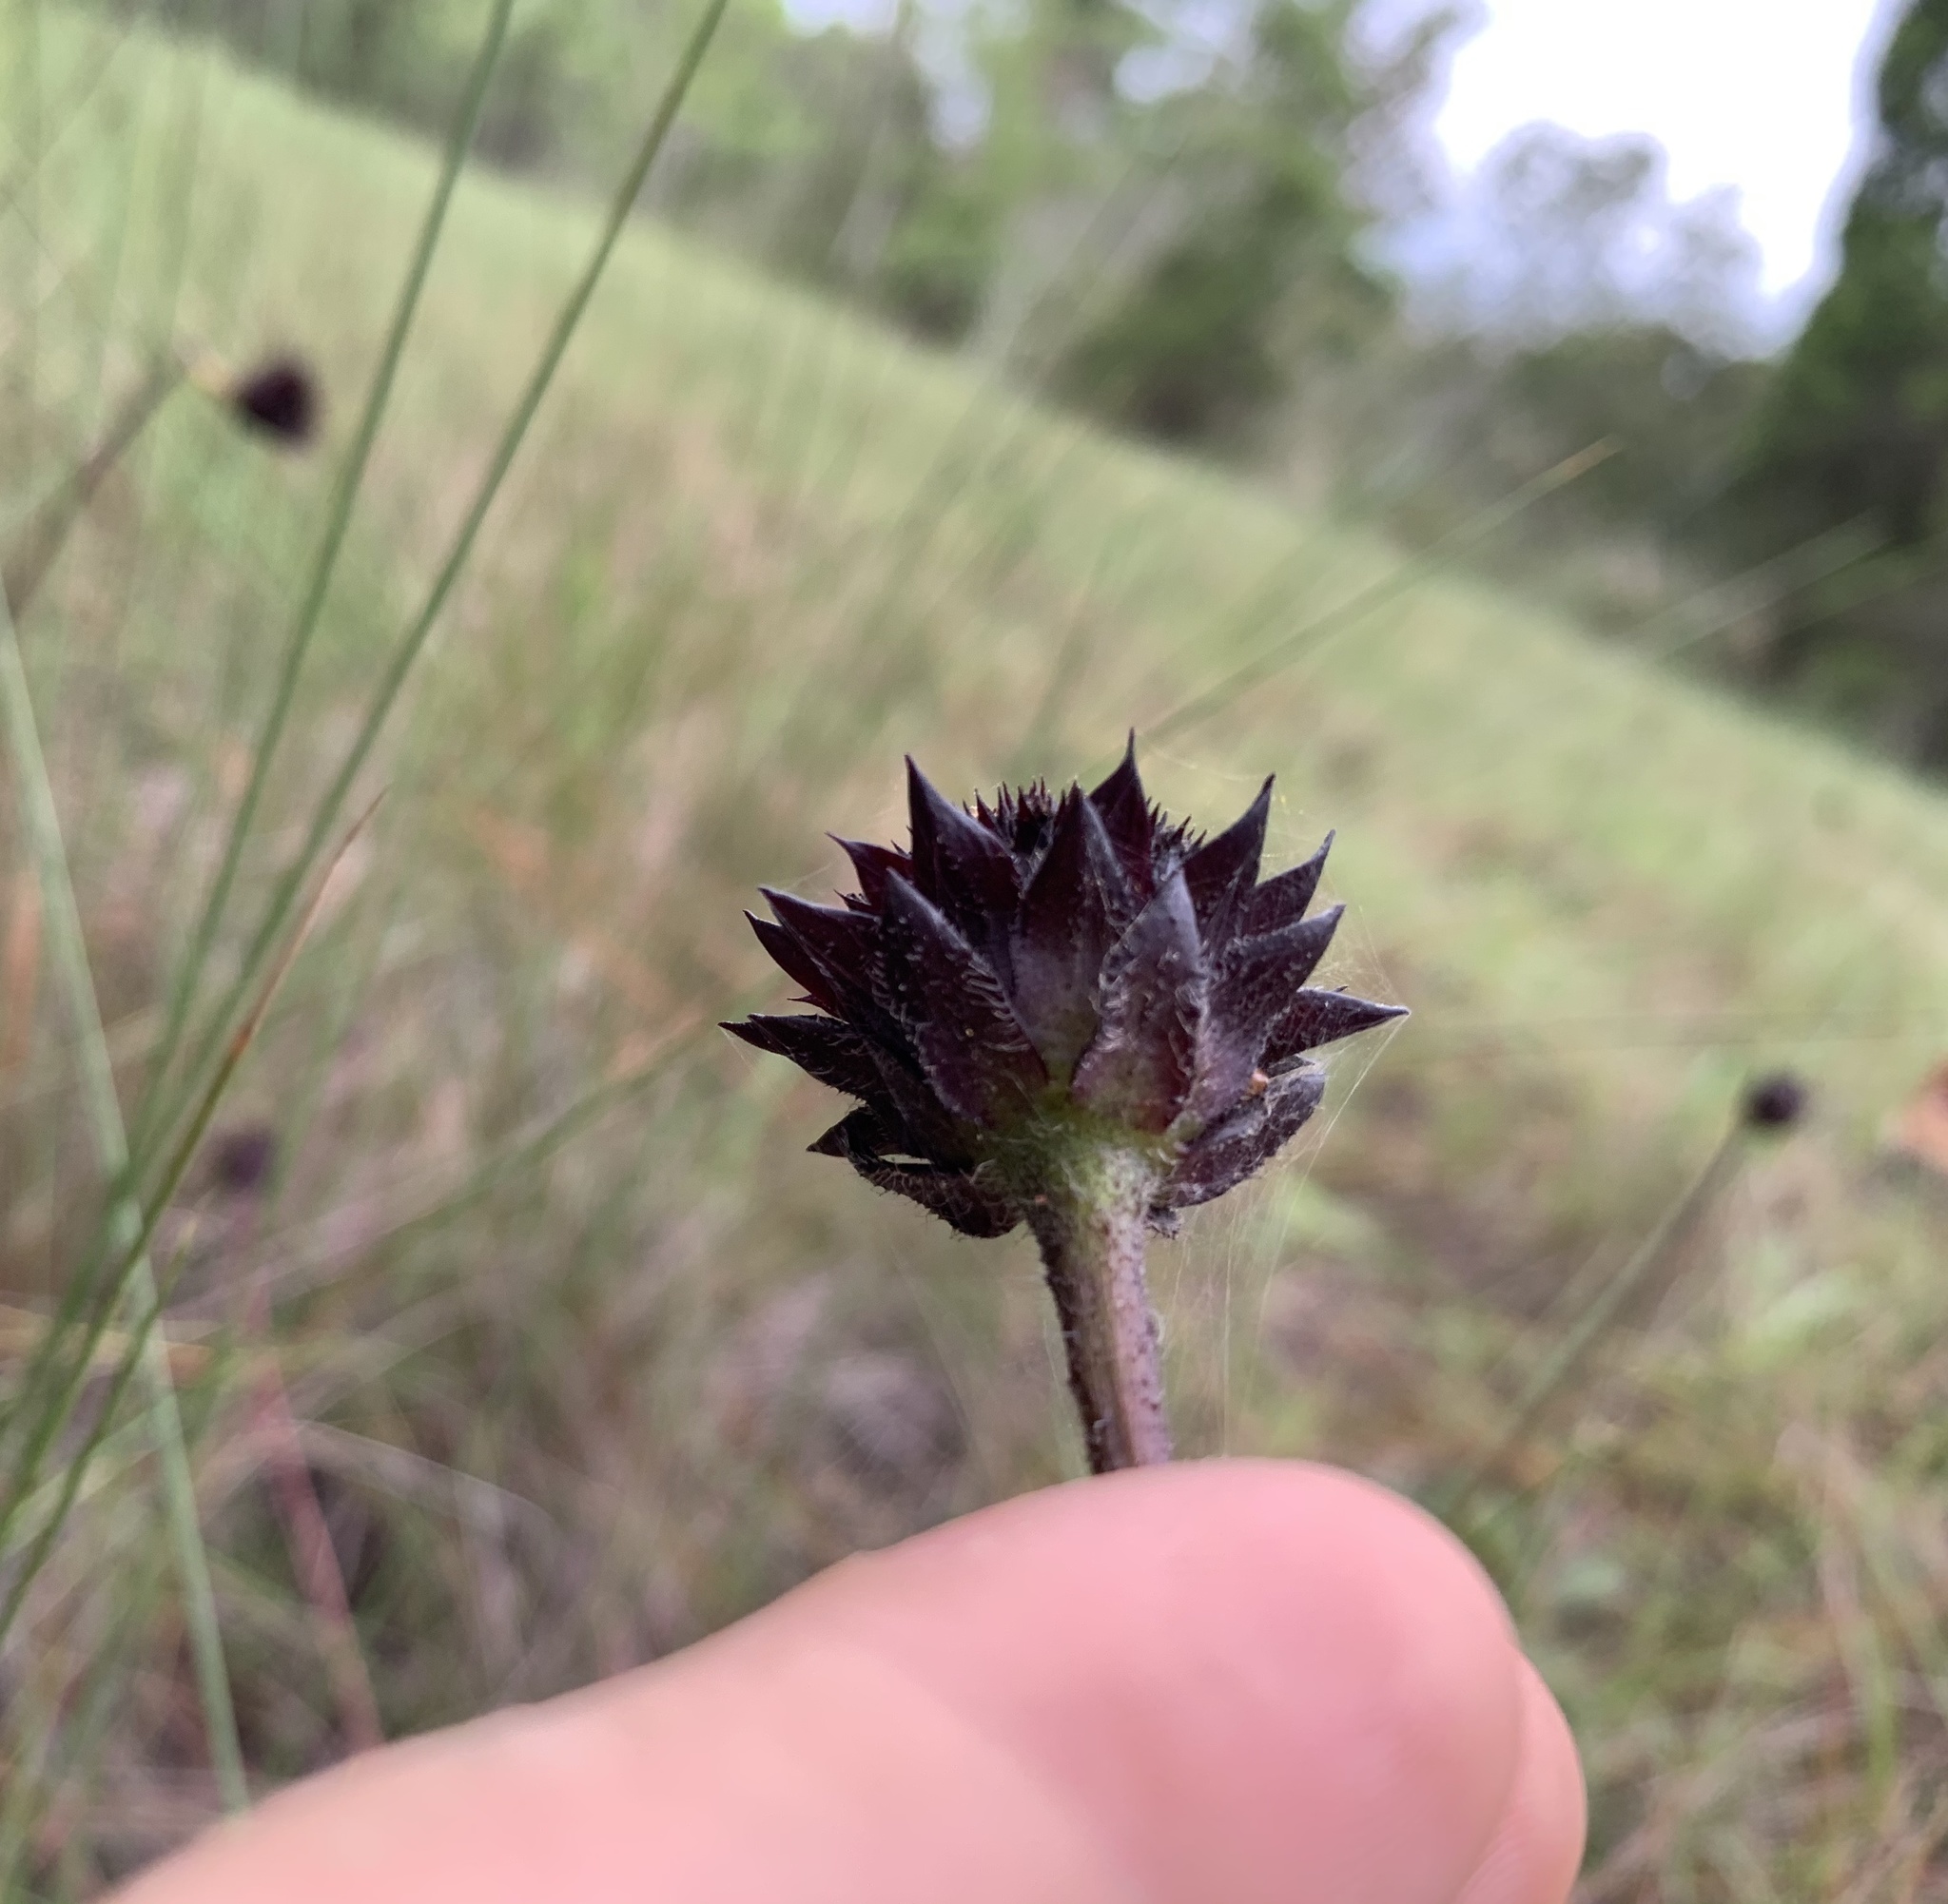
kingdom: Plantae
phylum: Tracheophyta
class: Magnoliopsida
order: Asterales
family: Asteraceae
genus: Helianthus
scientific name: Helianthus radula
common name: Pineland sunflower
